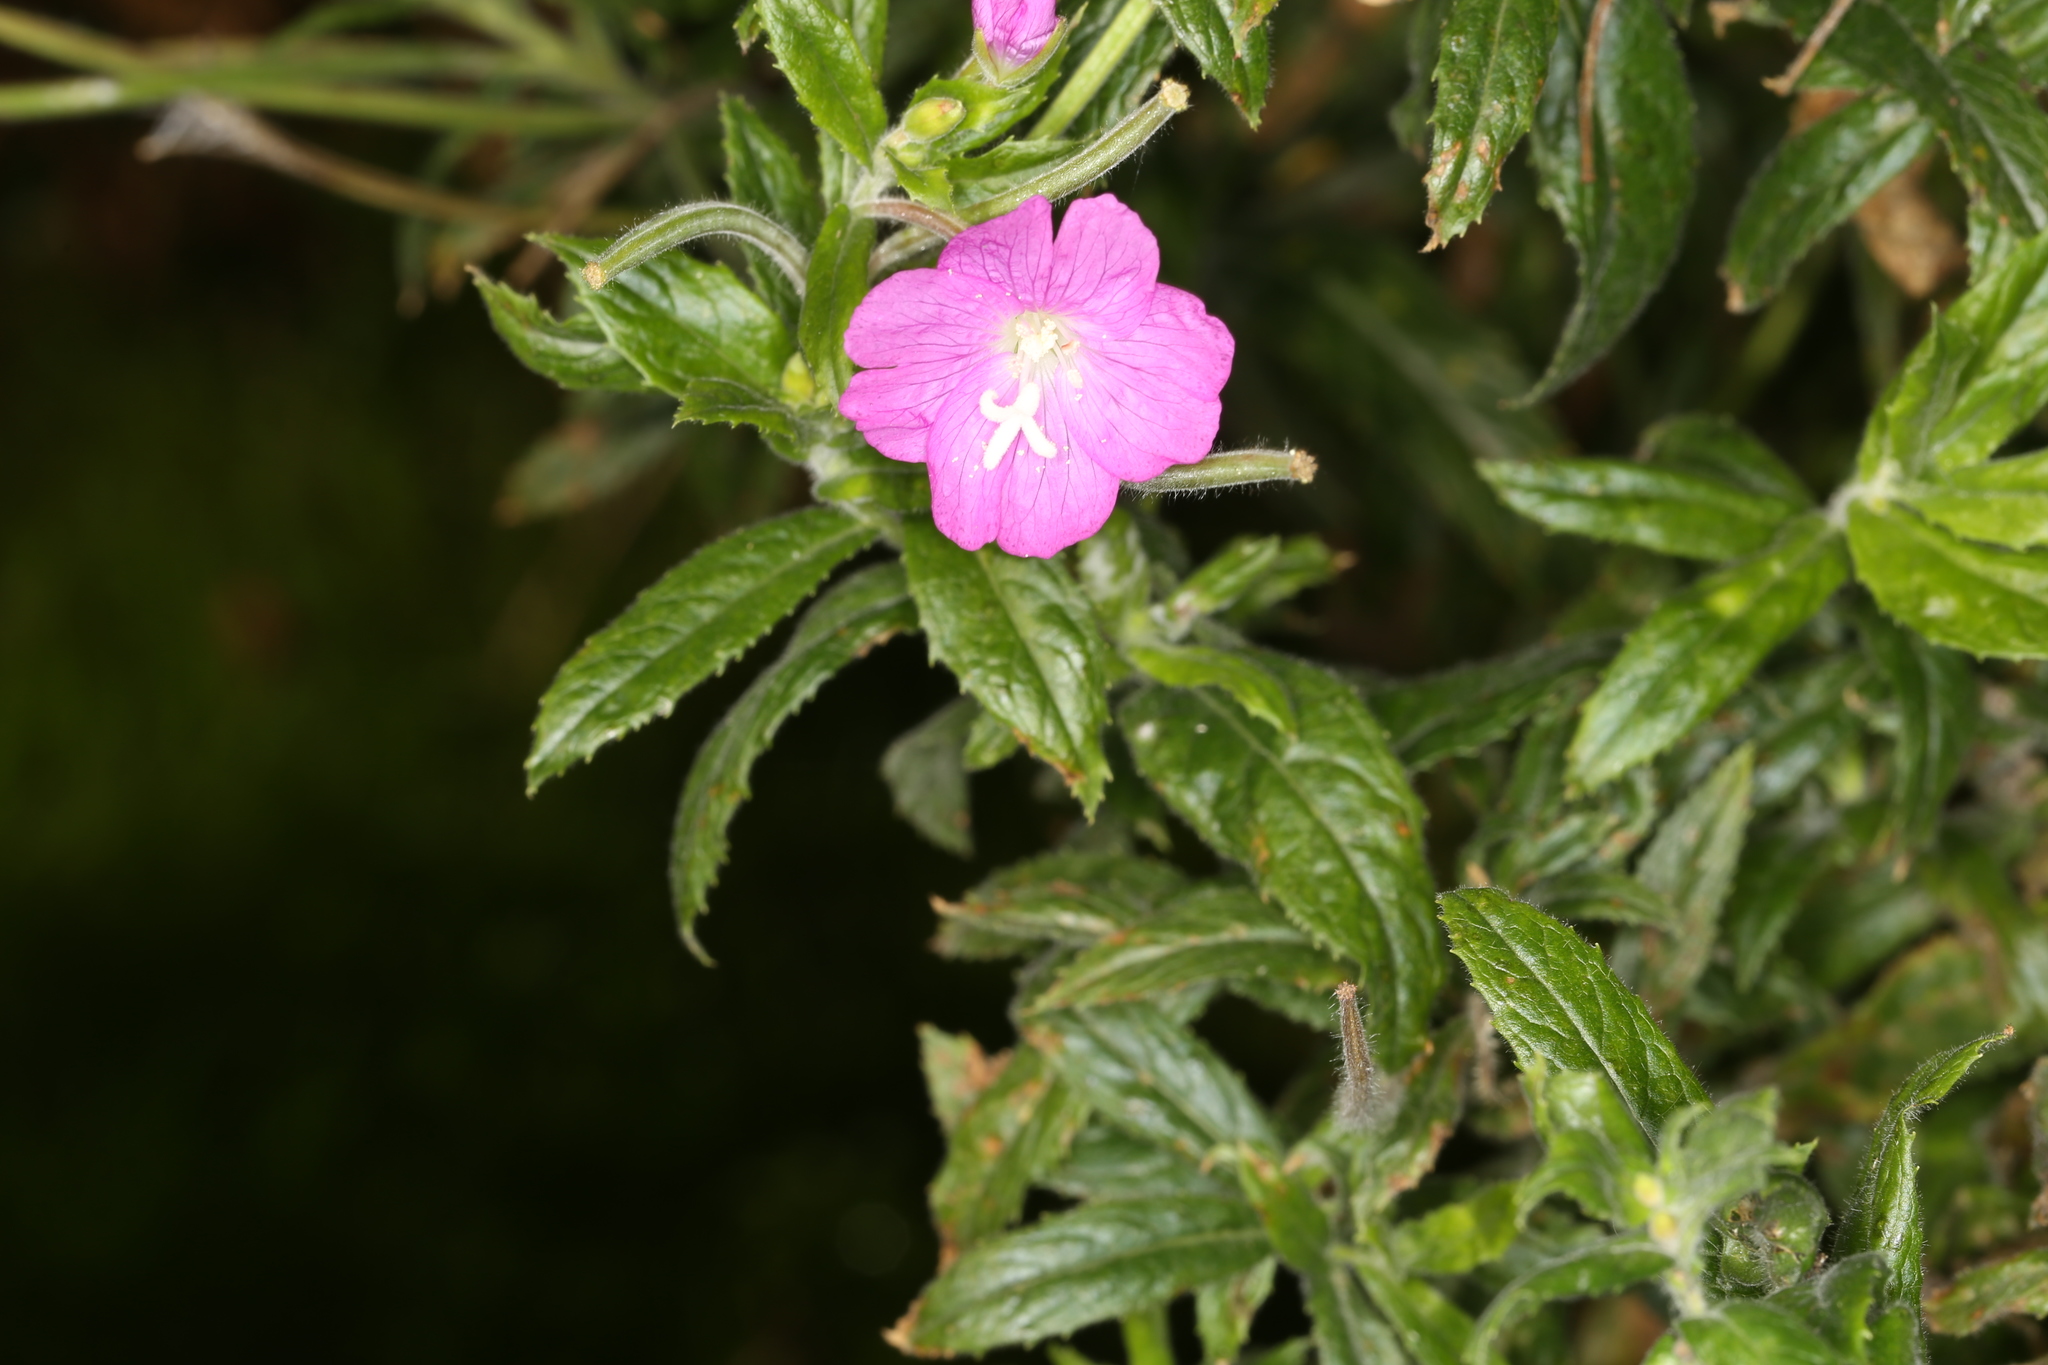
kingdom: Plantae
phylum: Tracheophyta
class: Magnoliopsida
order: Myrtales
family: Onagraceae
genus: Epilobium
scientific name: Epilobium hirsutum
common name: Great willowherb
